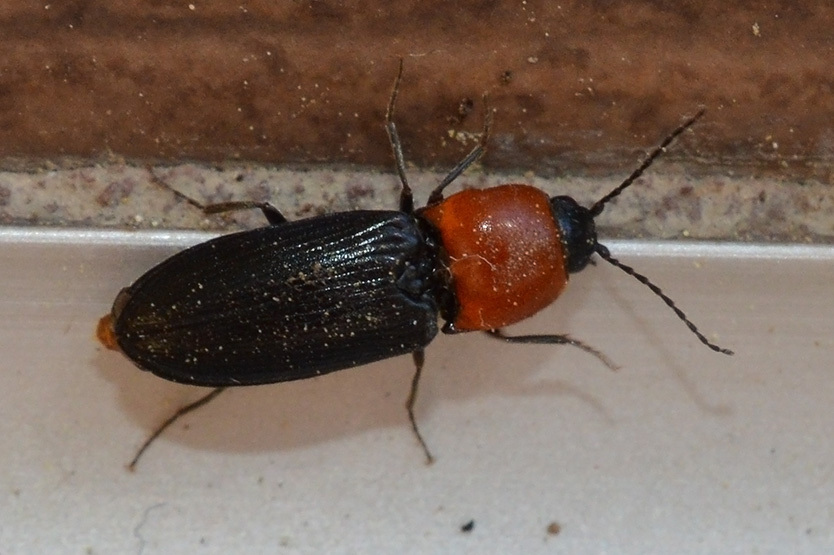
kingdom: Animalia
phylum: Arthropoda
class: Insecta
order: Coleoptera
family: Elateridae
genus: Cardiophorus
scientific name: Cardiophorus gramineus
